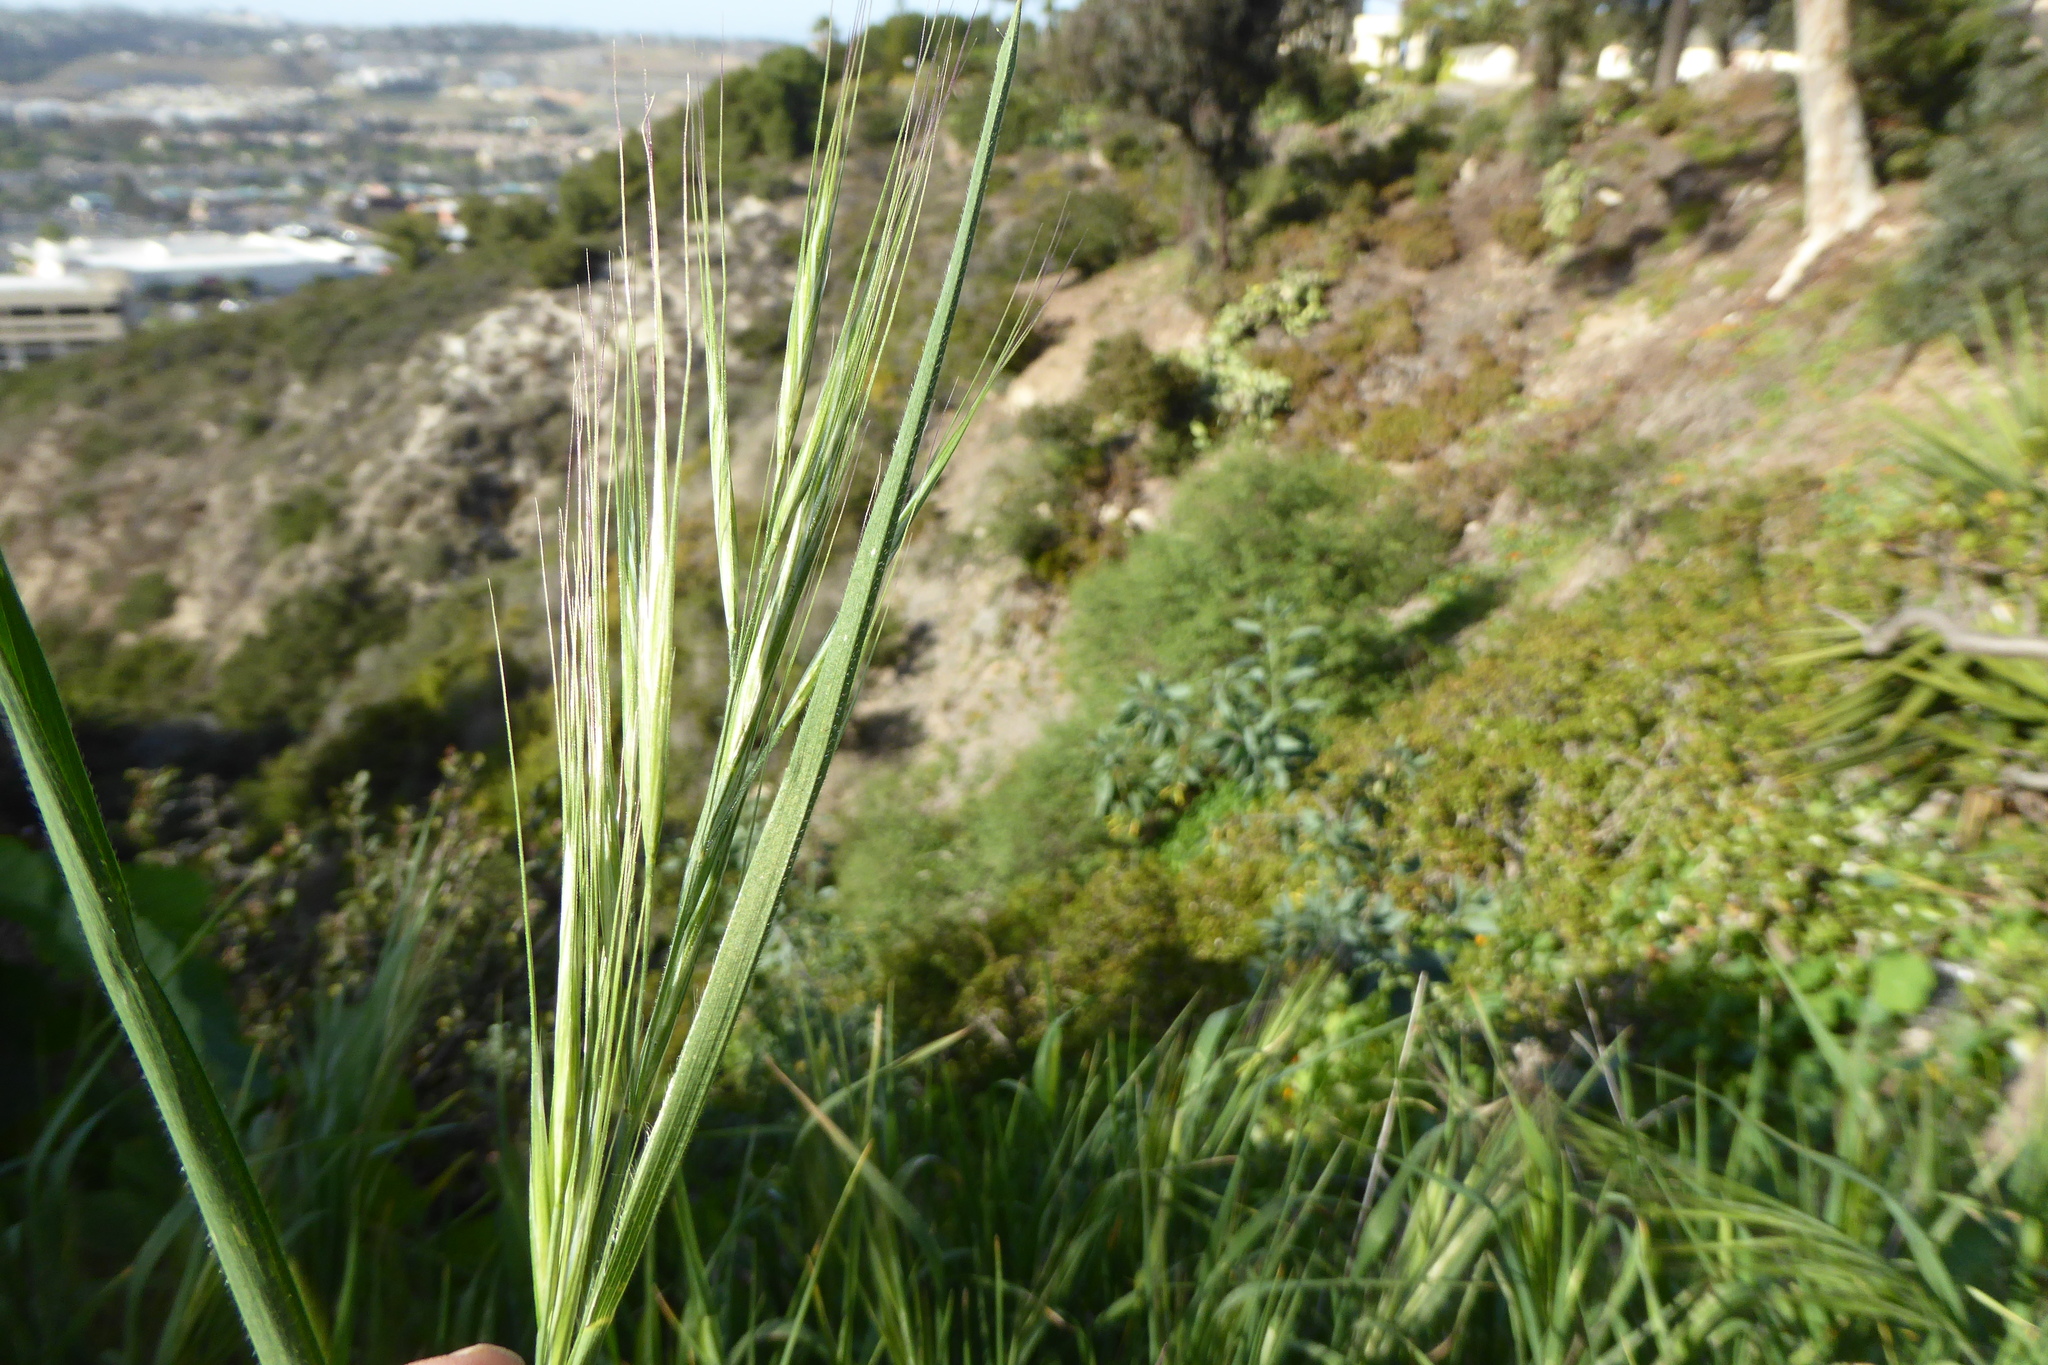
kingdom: Plantae
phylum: Tracheophyta
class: Liliopsida
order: Poales
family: Poaceae
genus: Bromus
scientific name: Bromus diandrus
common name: Ripgut brome
